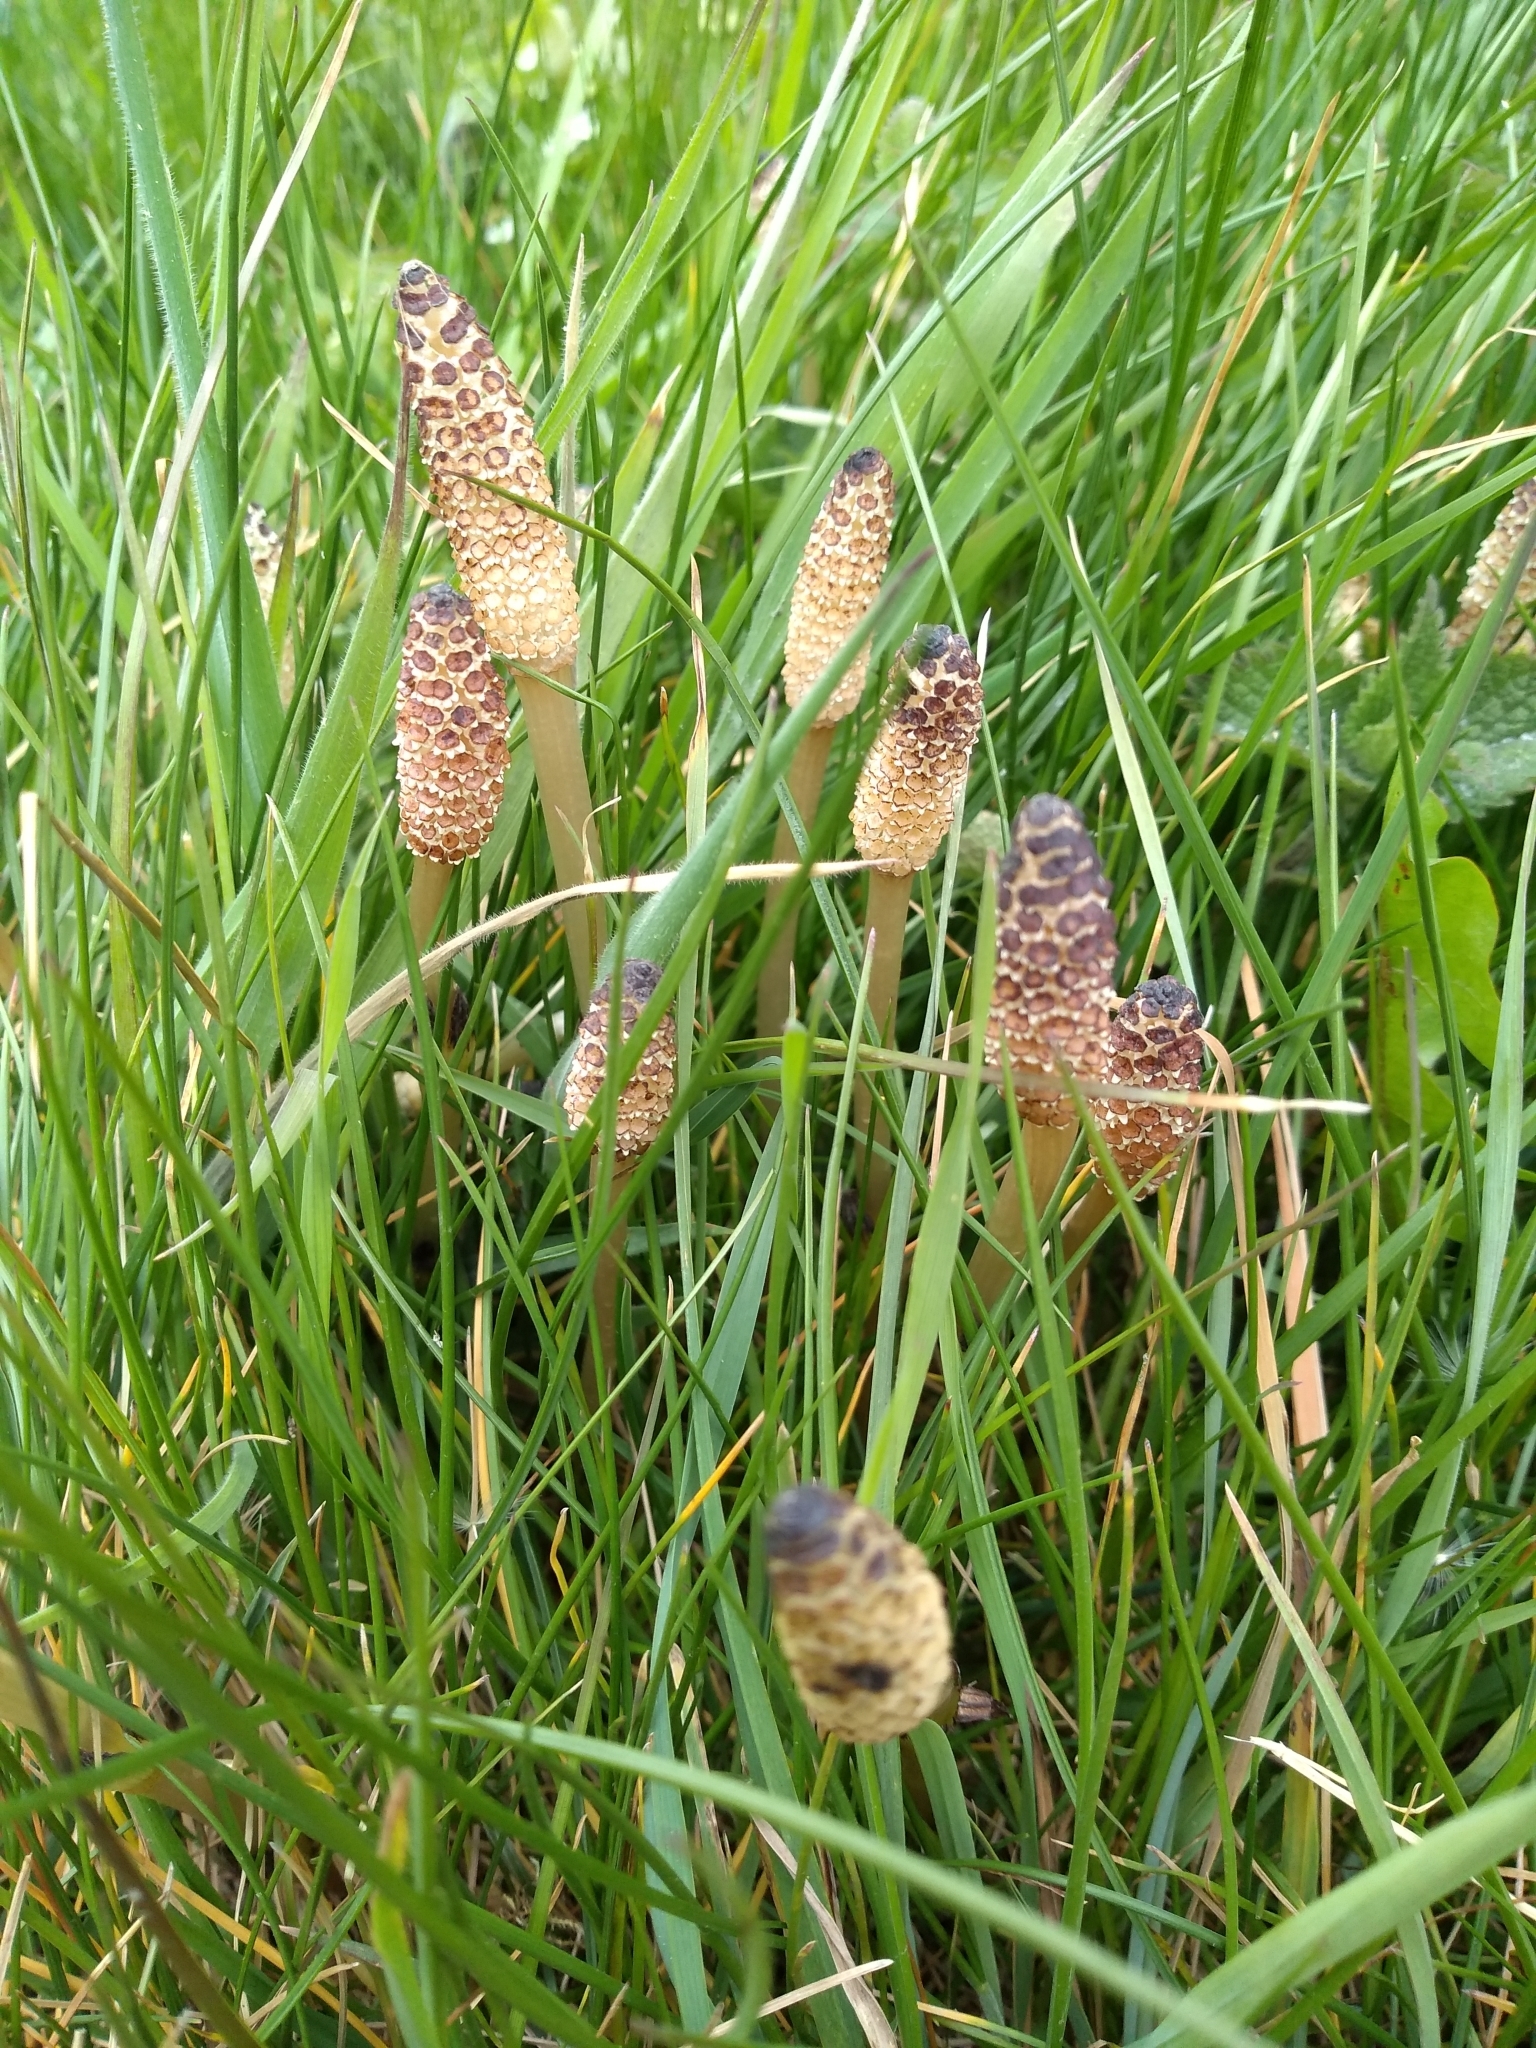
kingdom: Plantae
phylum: Tracheophyta
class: Polypodiopsida
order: Equisetales
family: Equisetaceae
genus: Equisetum
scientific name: Equisetum arvense
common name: Field horsetail
